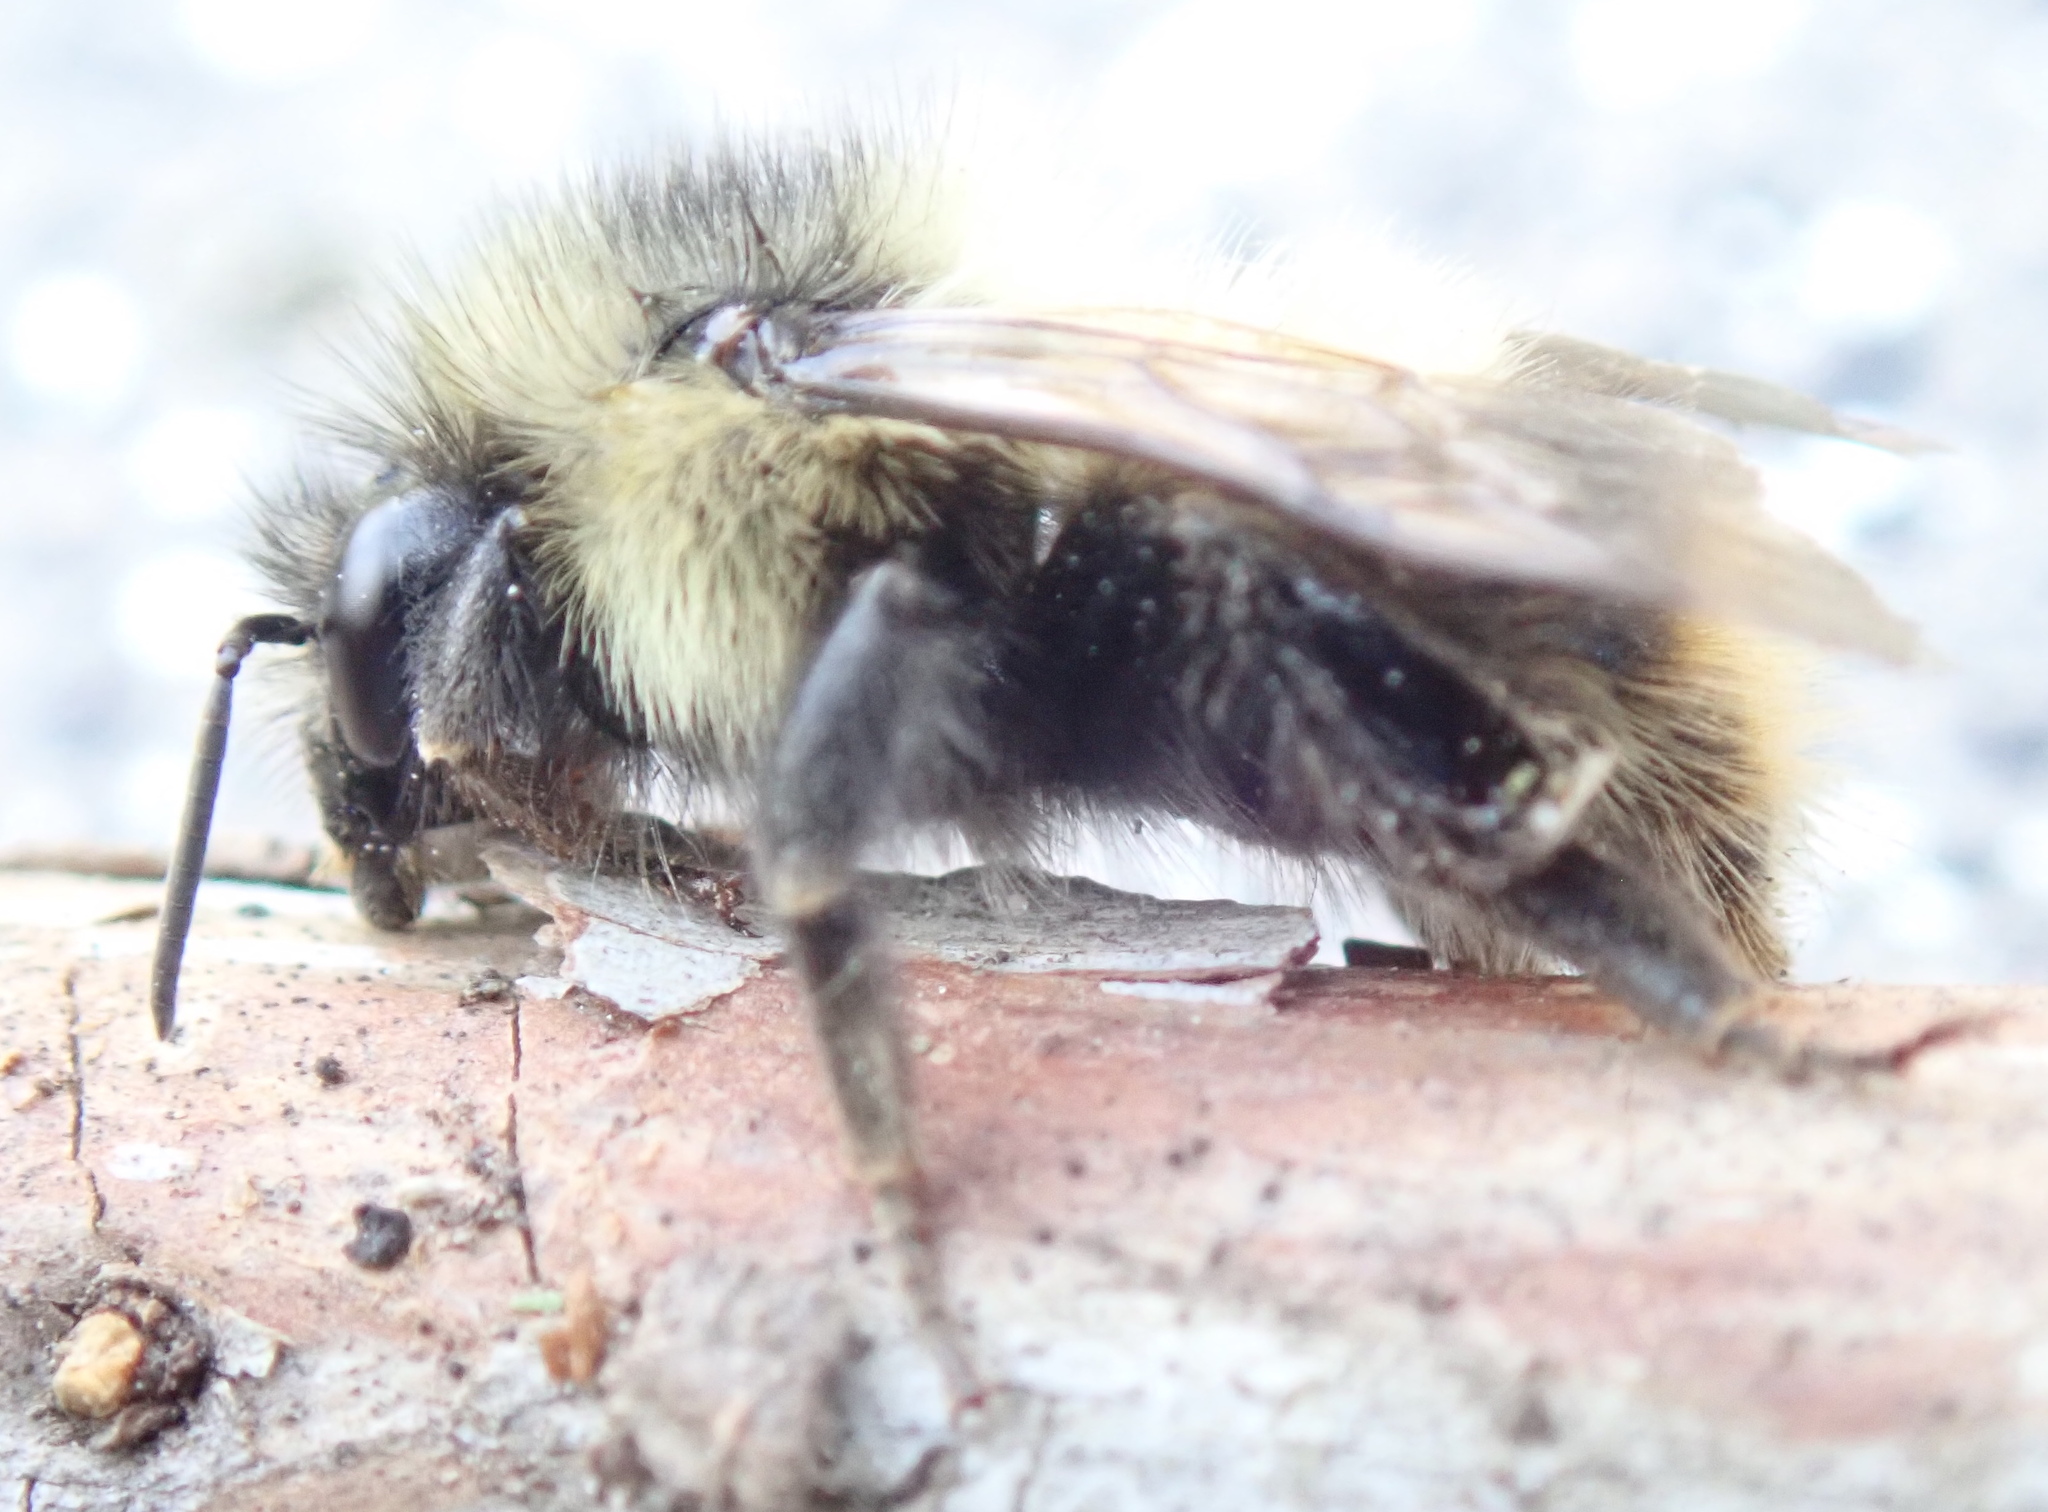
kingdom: Animalia
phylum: Arthropoda
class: Insecta
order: Hymenoptera
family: Apidae
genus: Bombus
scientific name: Bombus mixtus
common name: Fuzzy-horned bumble bee
